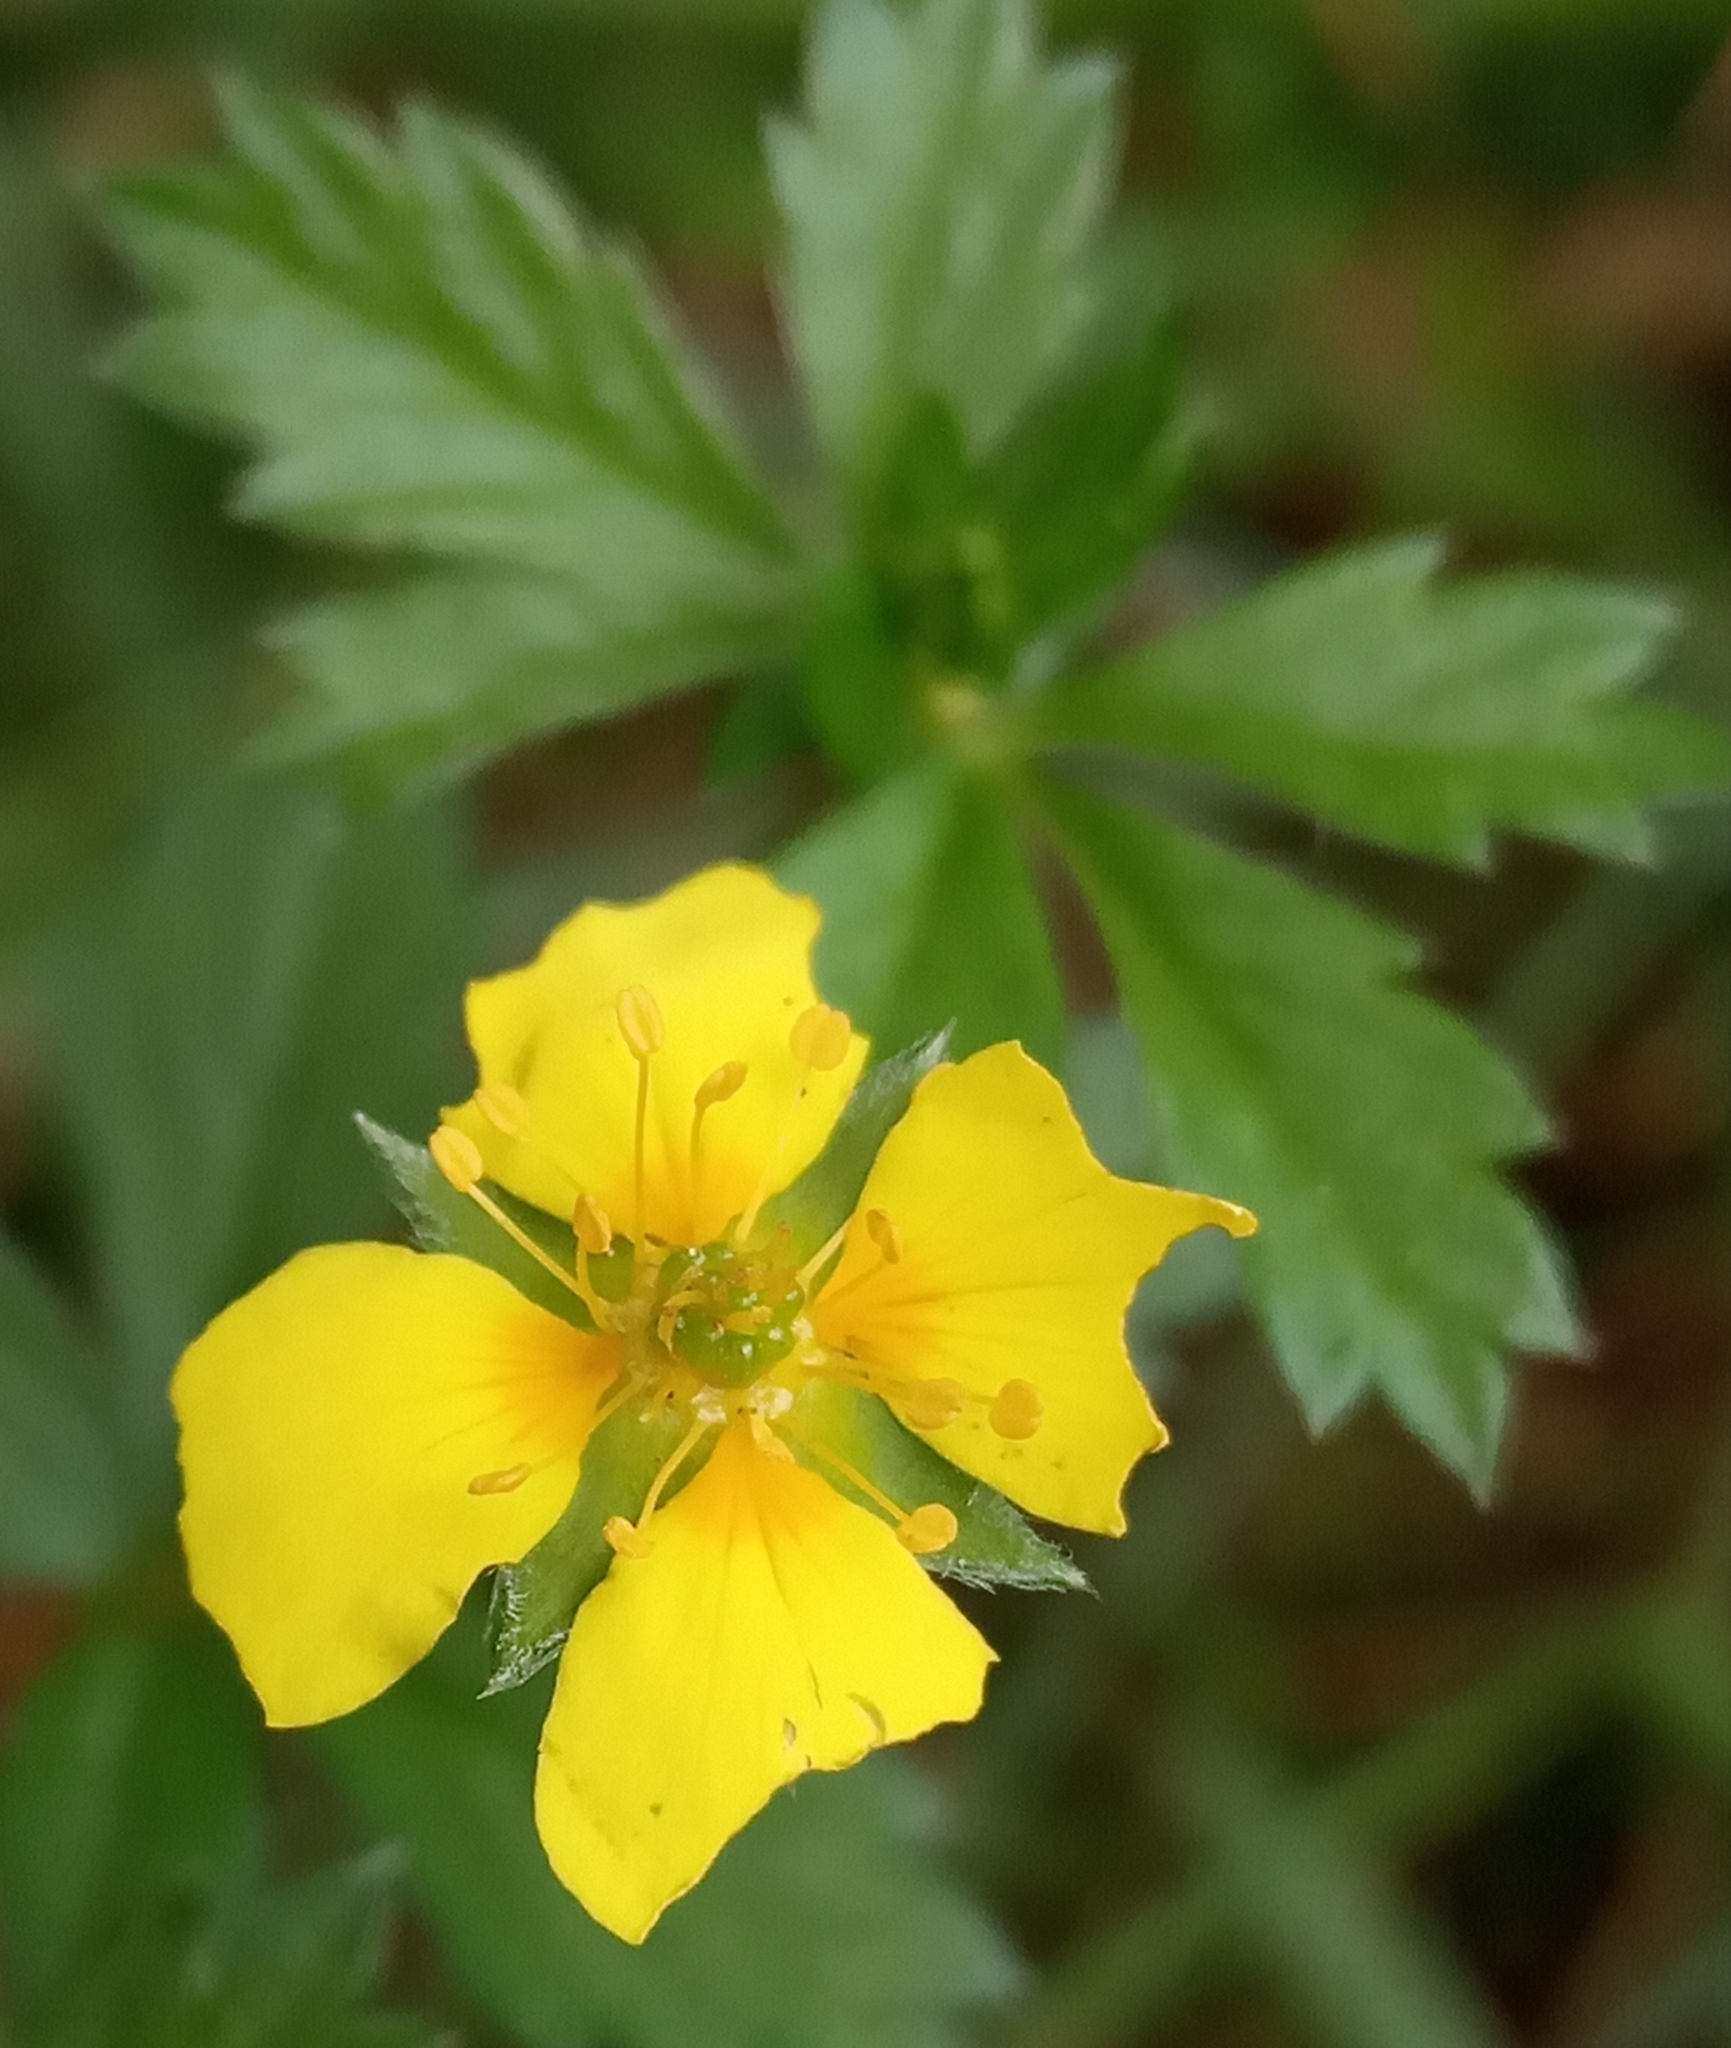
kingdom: Plantae
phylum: Tracheophyta
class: Magnoliopsida
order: Rosales
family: Rosaceae
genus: Potentilla
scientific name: Potentilla erecta
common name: Tormentil
